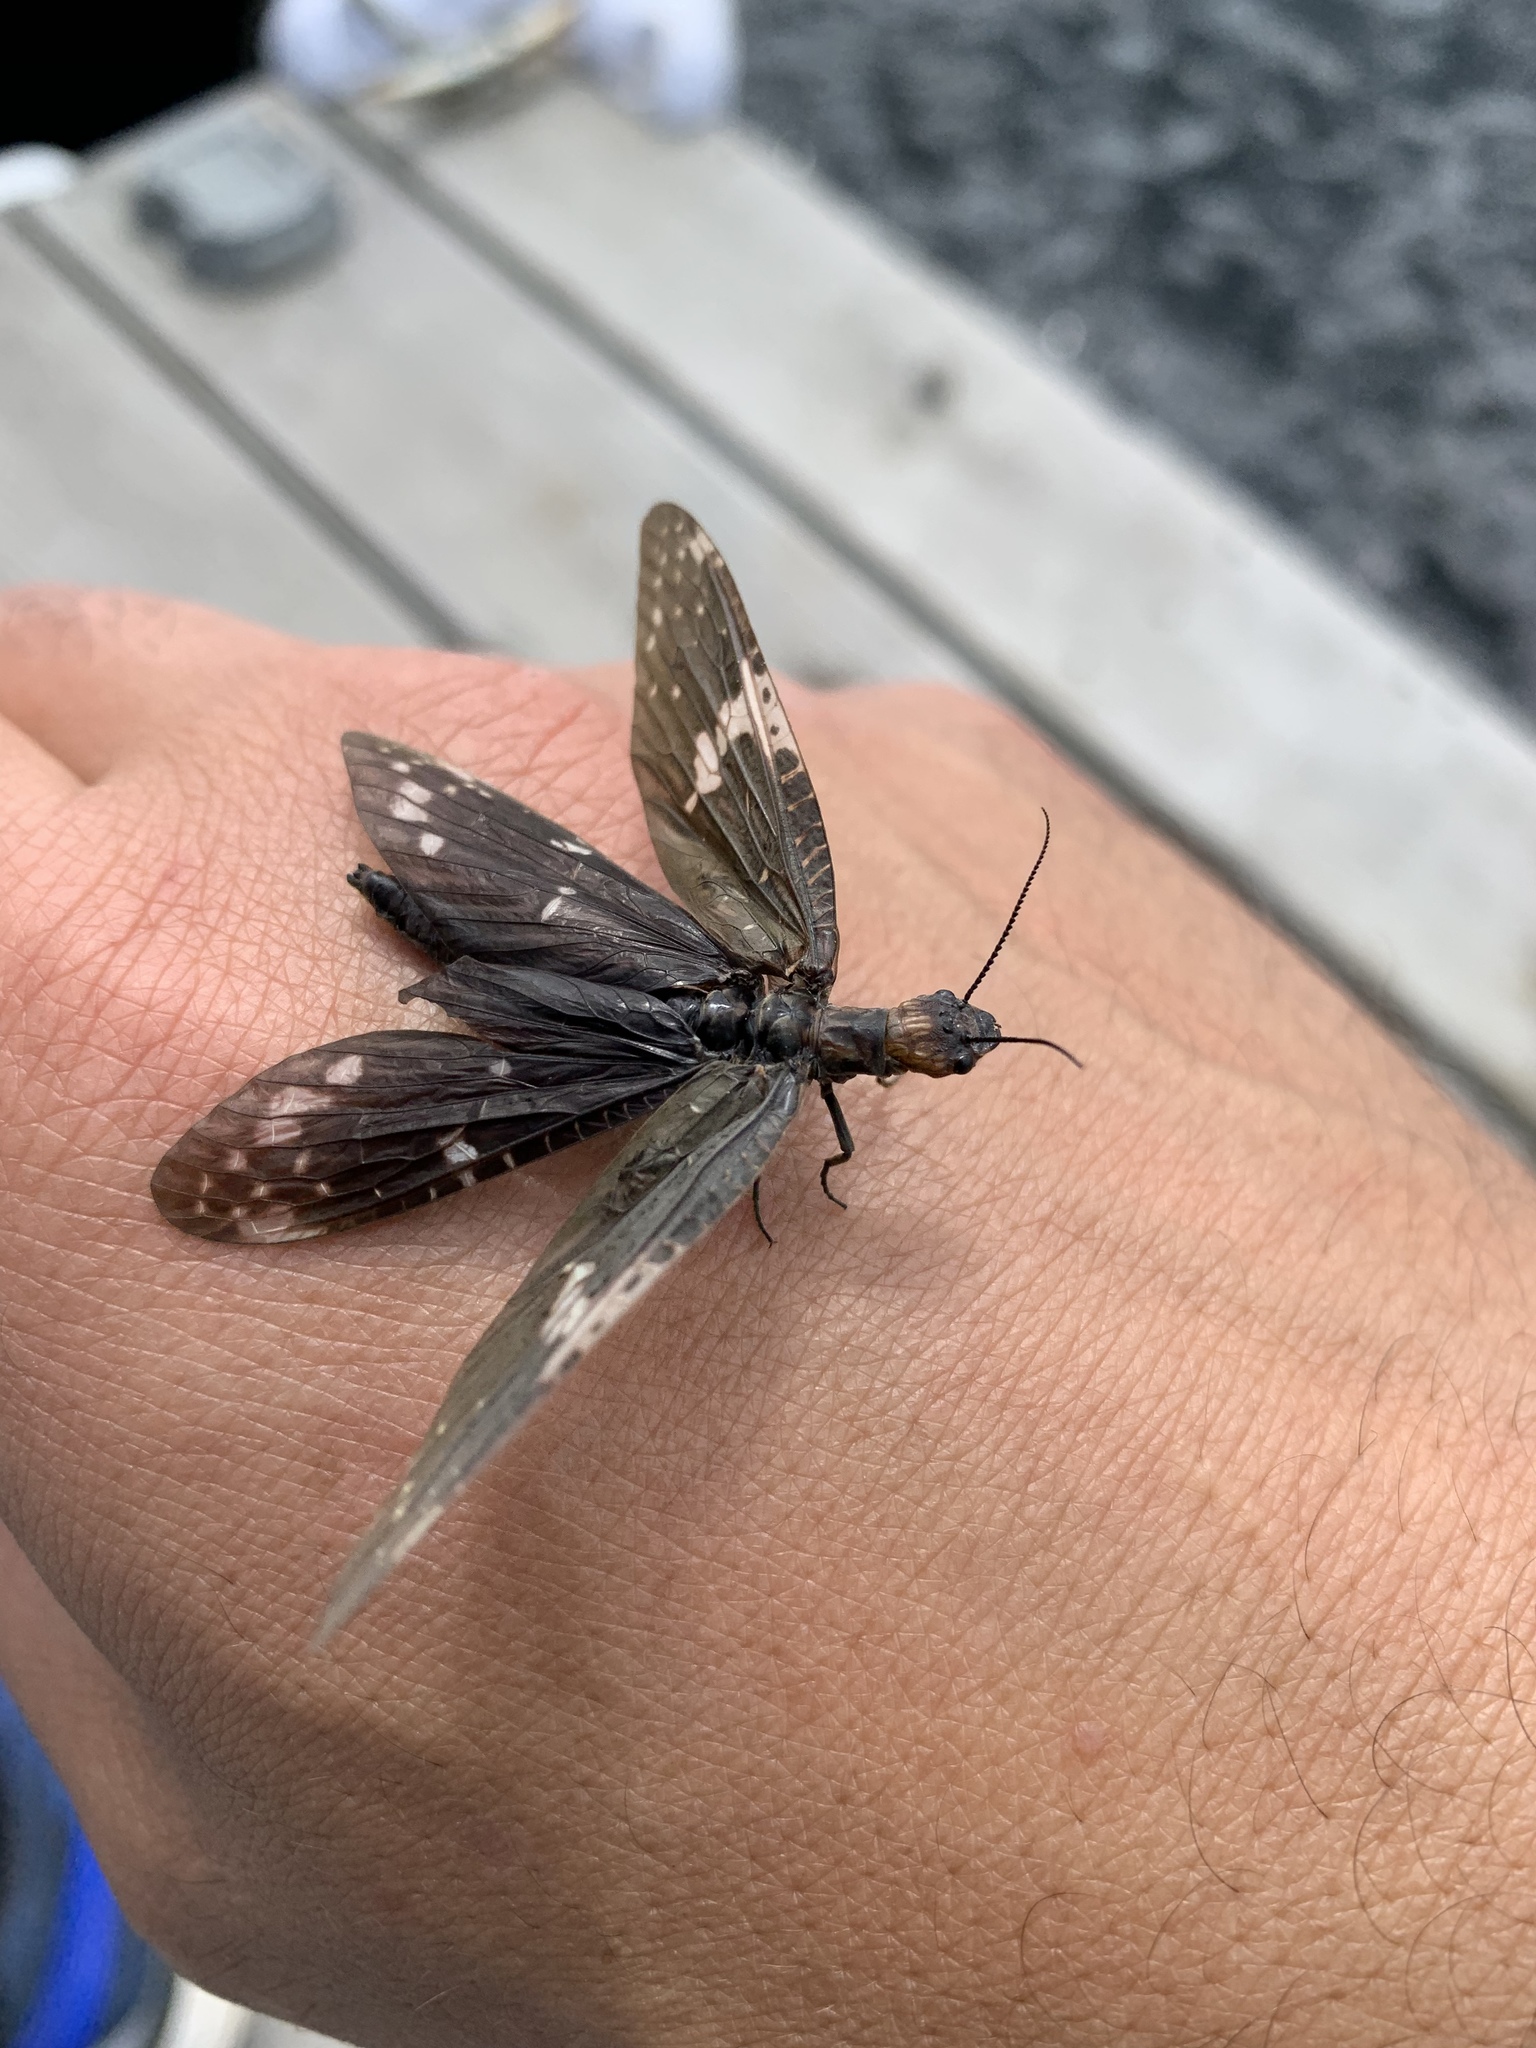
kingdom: Animalia
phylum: Arthropoda
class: Insecta
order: Megaloptera
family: Corydalidae
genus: Nigronia
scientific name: Nigronia serricornis
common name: Serrate dark fishfly
